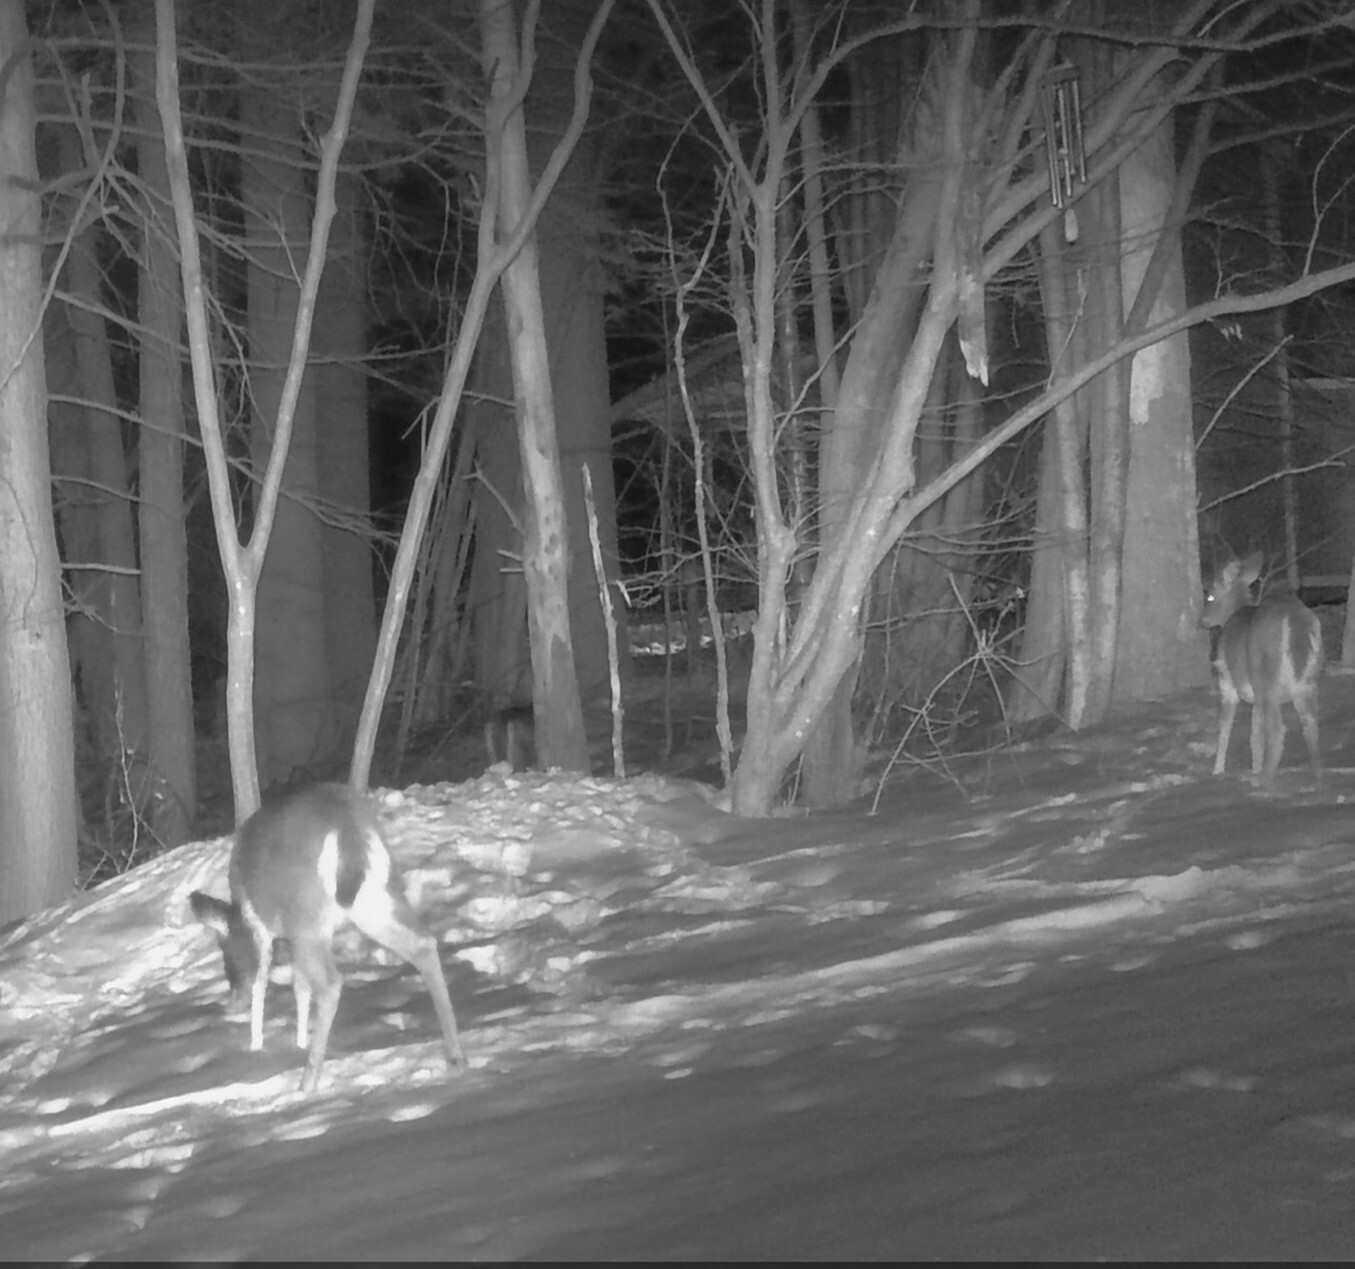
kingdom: Animalia
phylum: Chordata
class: Mammalia
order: Artiodactyla
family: Cervidae
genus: Odocoileus
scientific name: Odocoileus virginianus
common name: White-tailed deer
